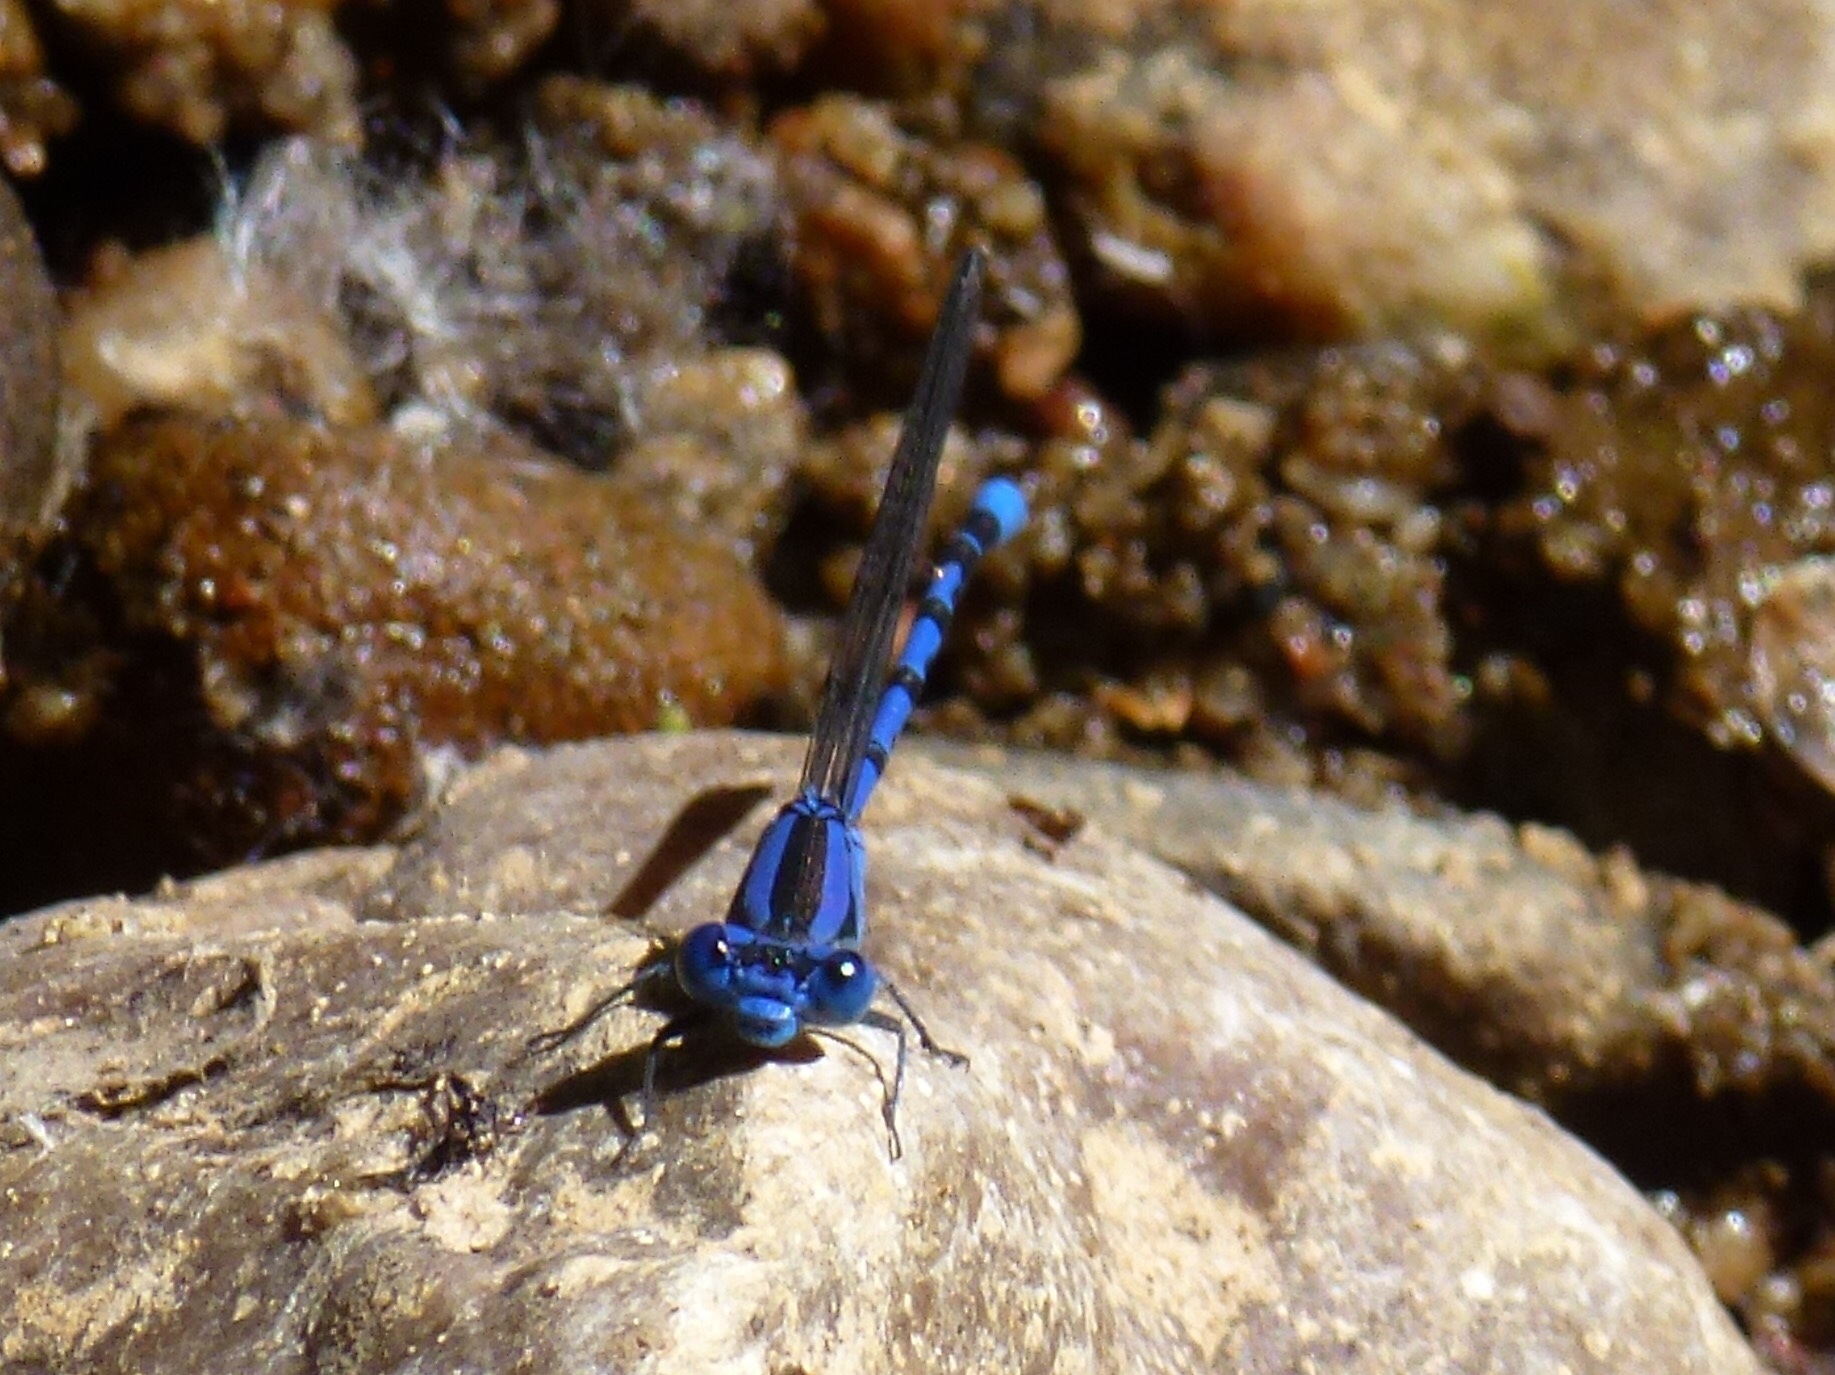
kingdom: Animalia
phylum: Arthropoda
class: Insecta
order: Odonata
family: Coenagrionidae
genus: Argia
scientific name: Argia vivida
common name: Vivid dancer
